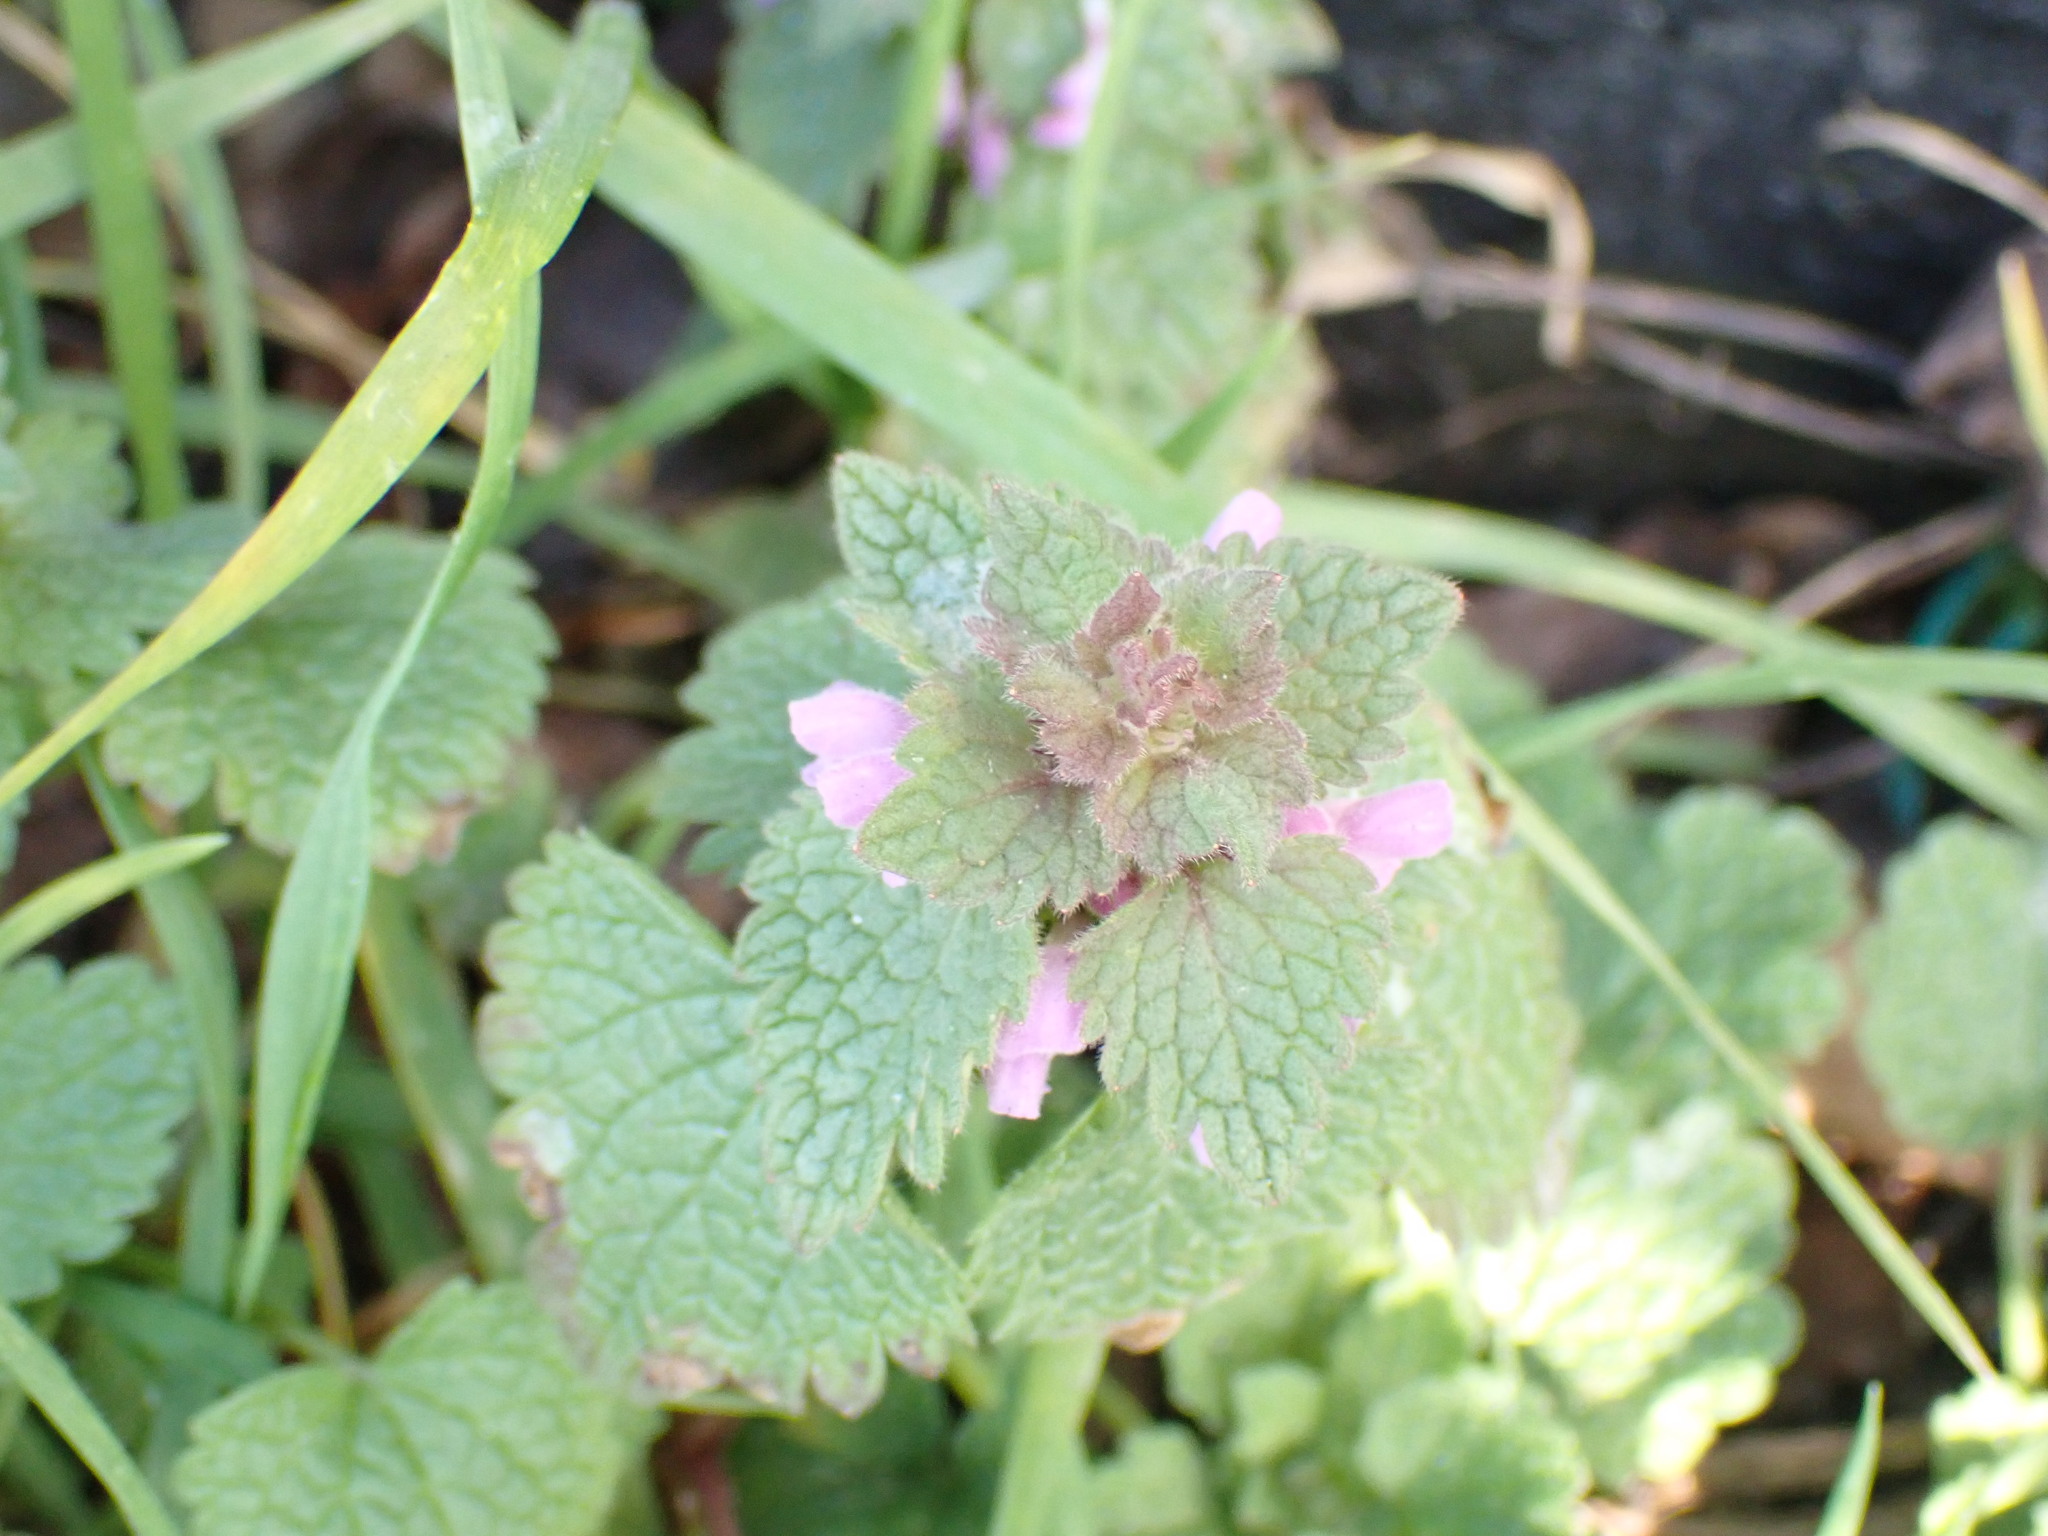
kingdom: Plantae
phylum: Tracheophyta
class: Magnoliopsida
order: Lamiales
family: Lamiaceae
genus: Lamium
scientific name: Lamium purpureum
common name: Red dead-nettle
